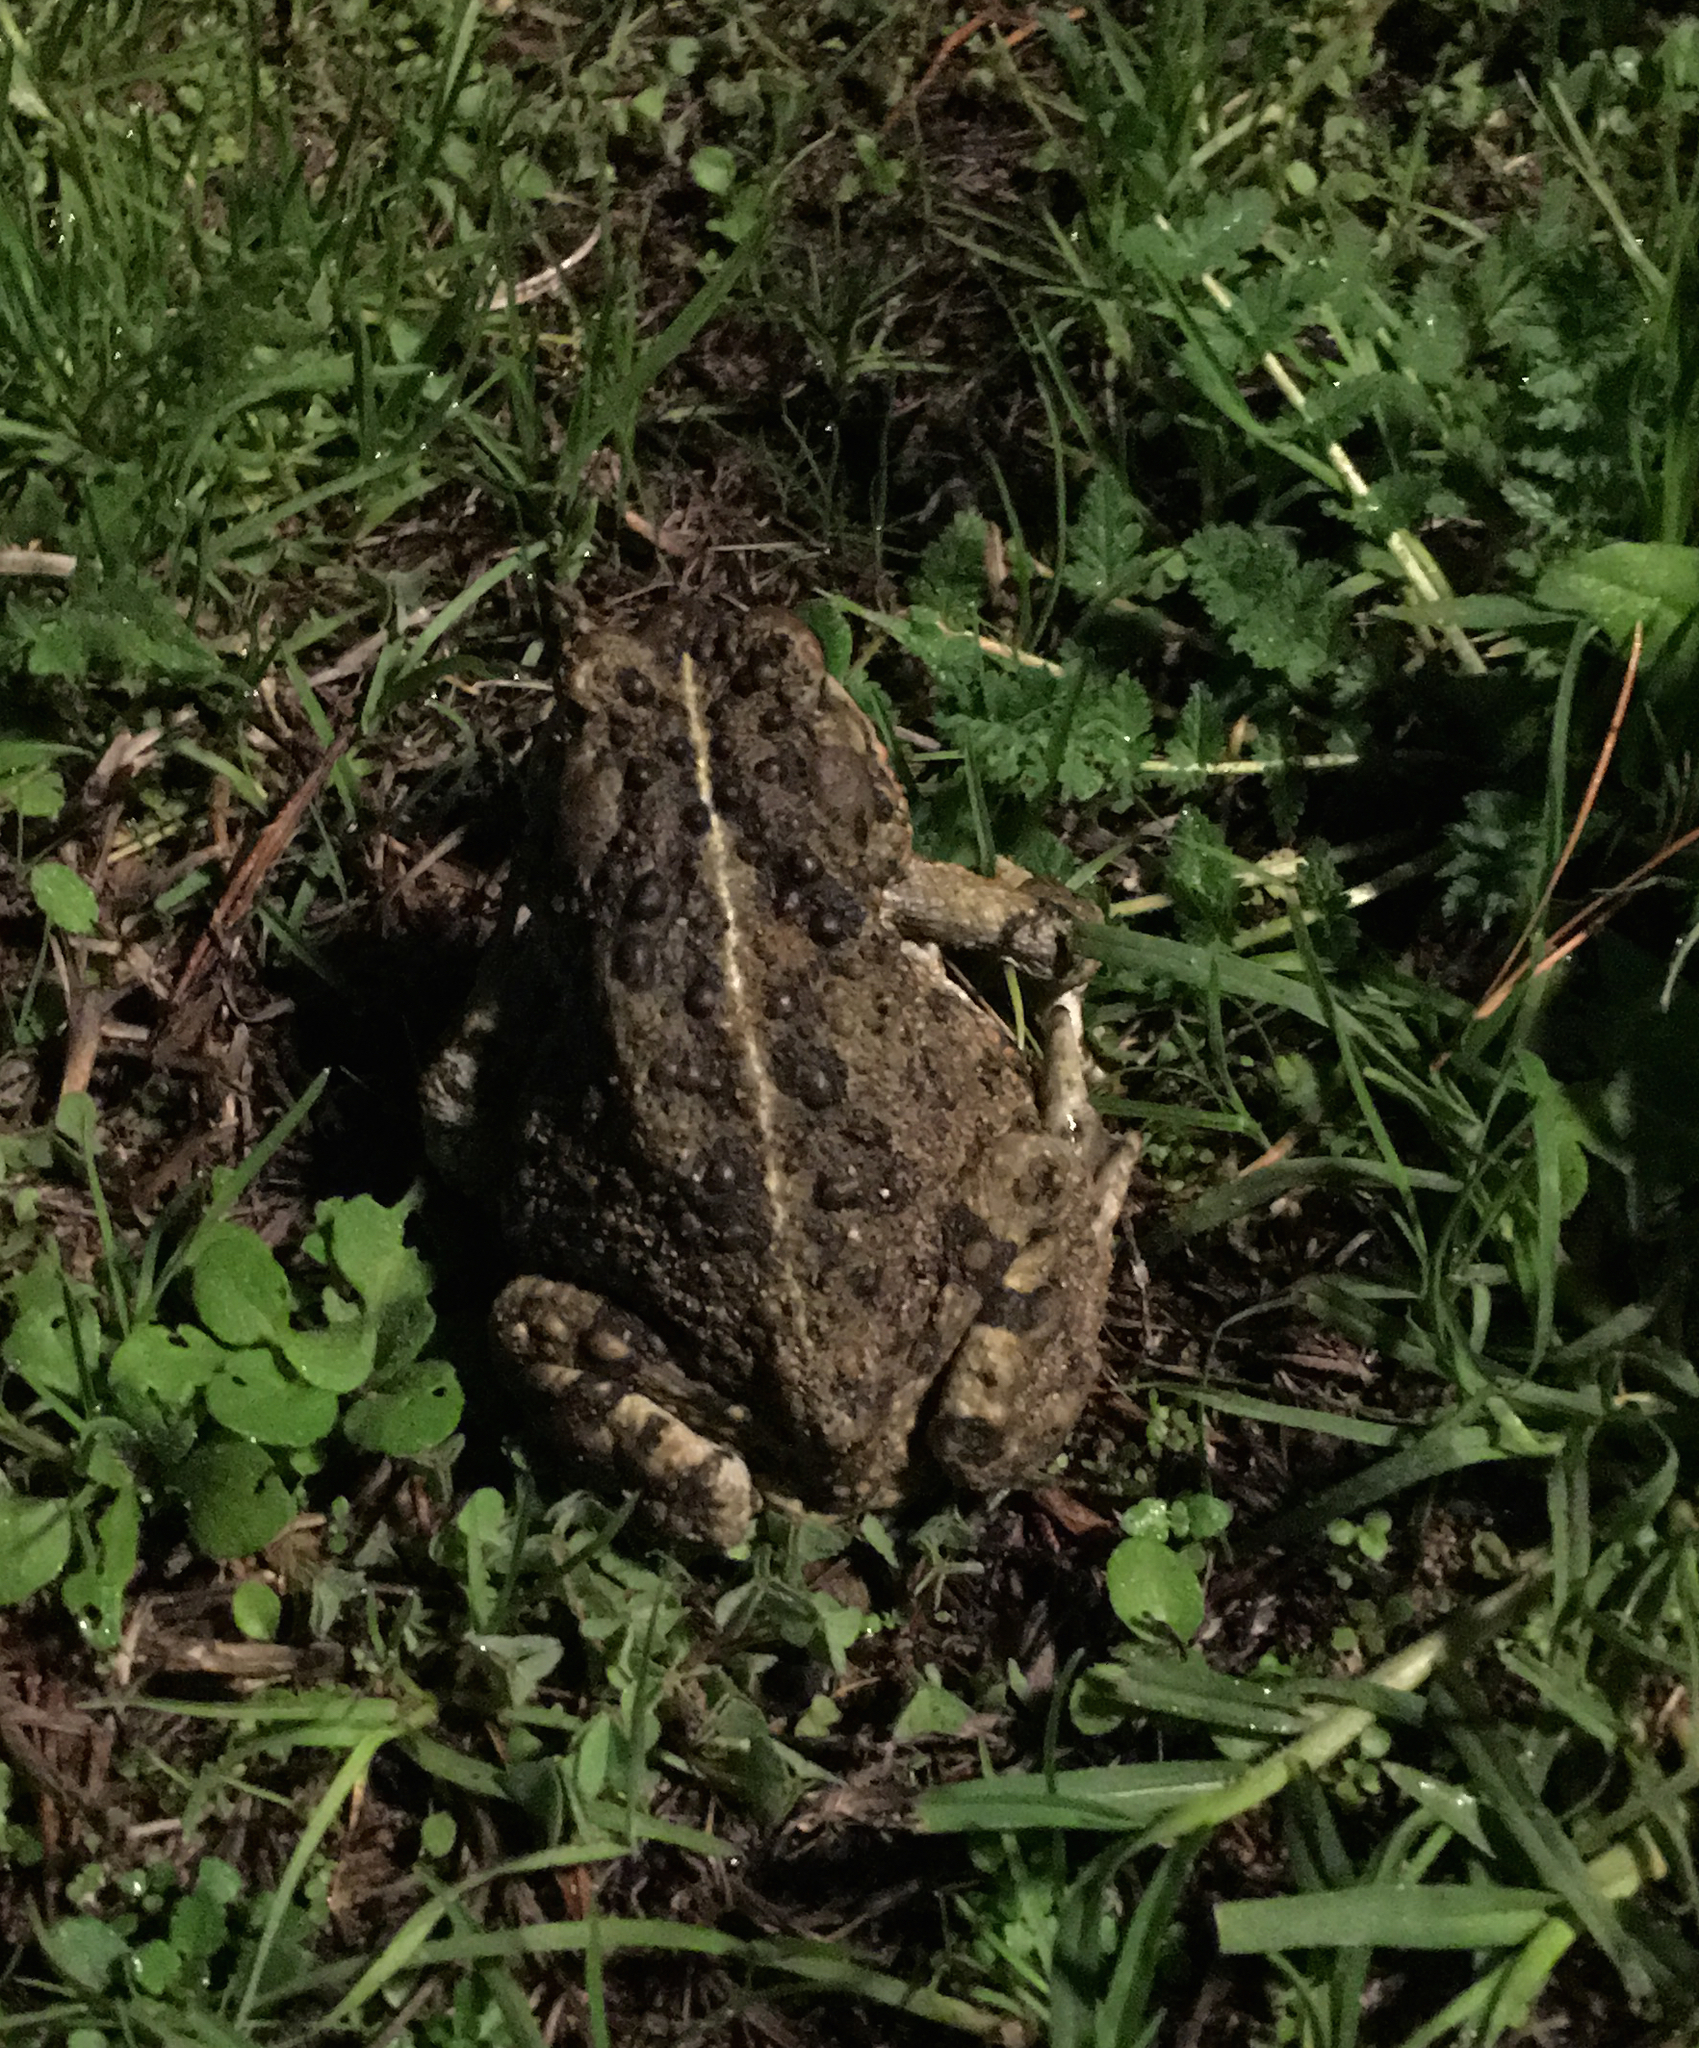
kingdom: Animalia
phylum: Chordata
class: Amphibia
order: Anura
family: Bufonidae
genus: Anaxyrus
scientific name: Anaxyrus boreas
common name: Western toad
